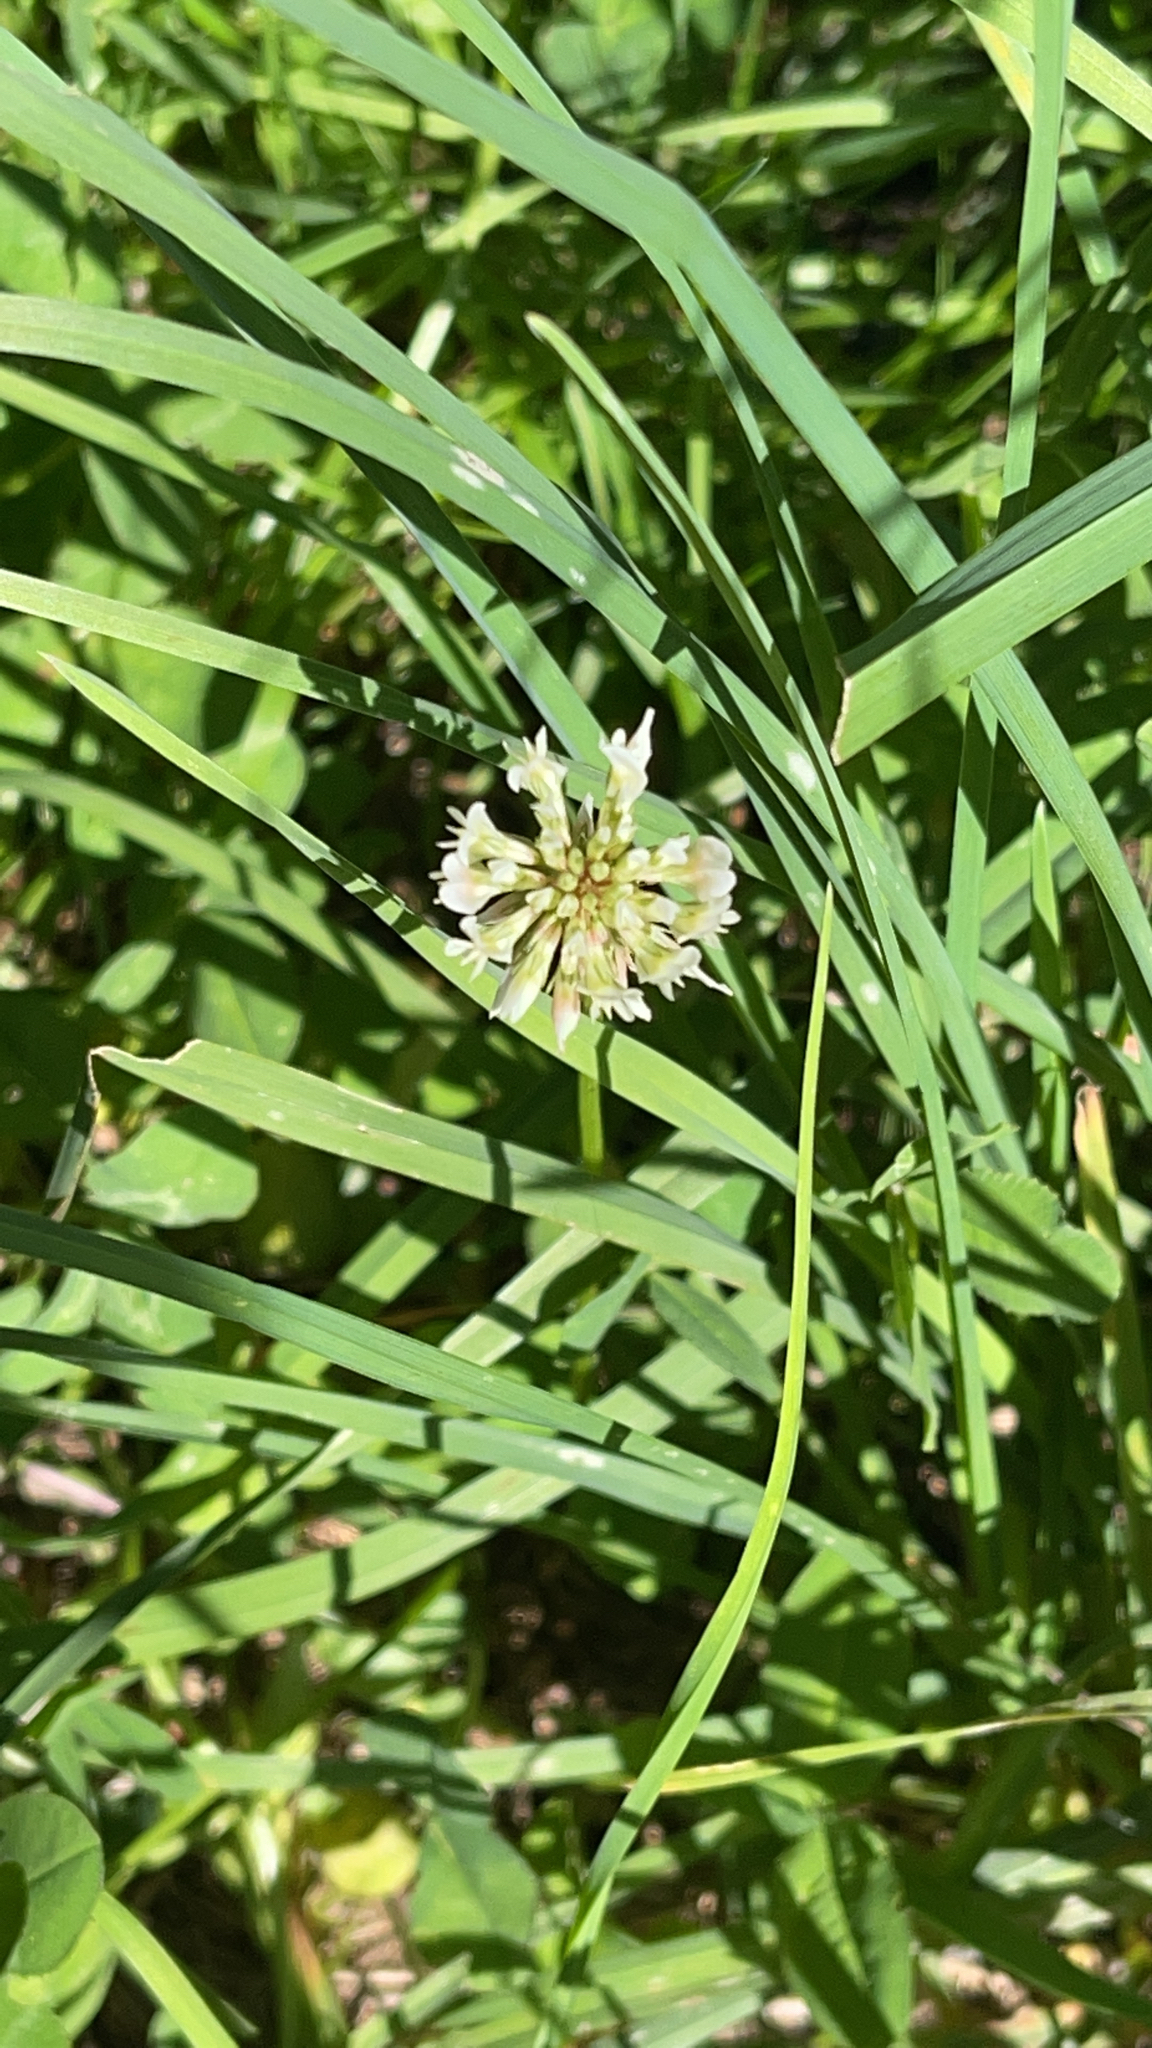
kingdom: Plantae
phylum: Tracheophyta
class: Magnoliopsida
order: Fabales
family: Fabaceae
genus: Trifolium
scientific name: Trifolium repens
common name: White clover
